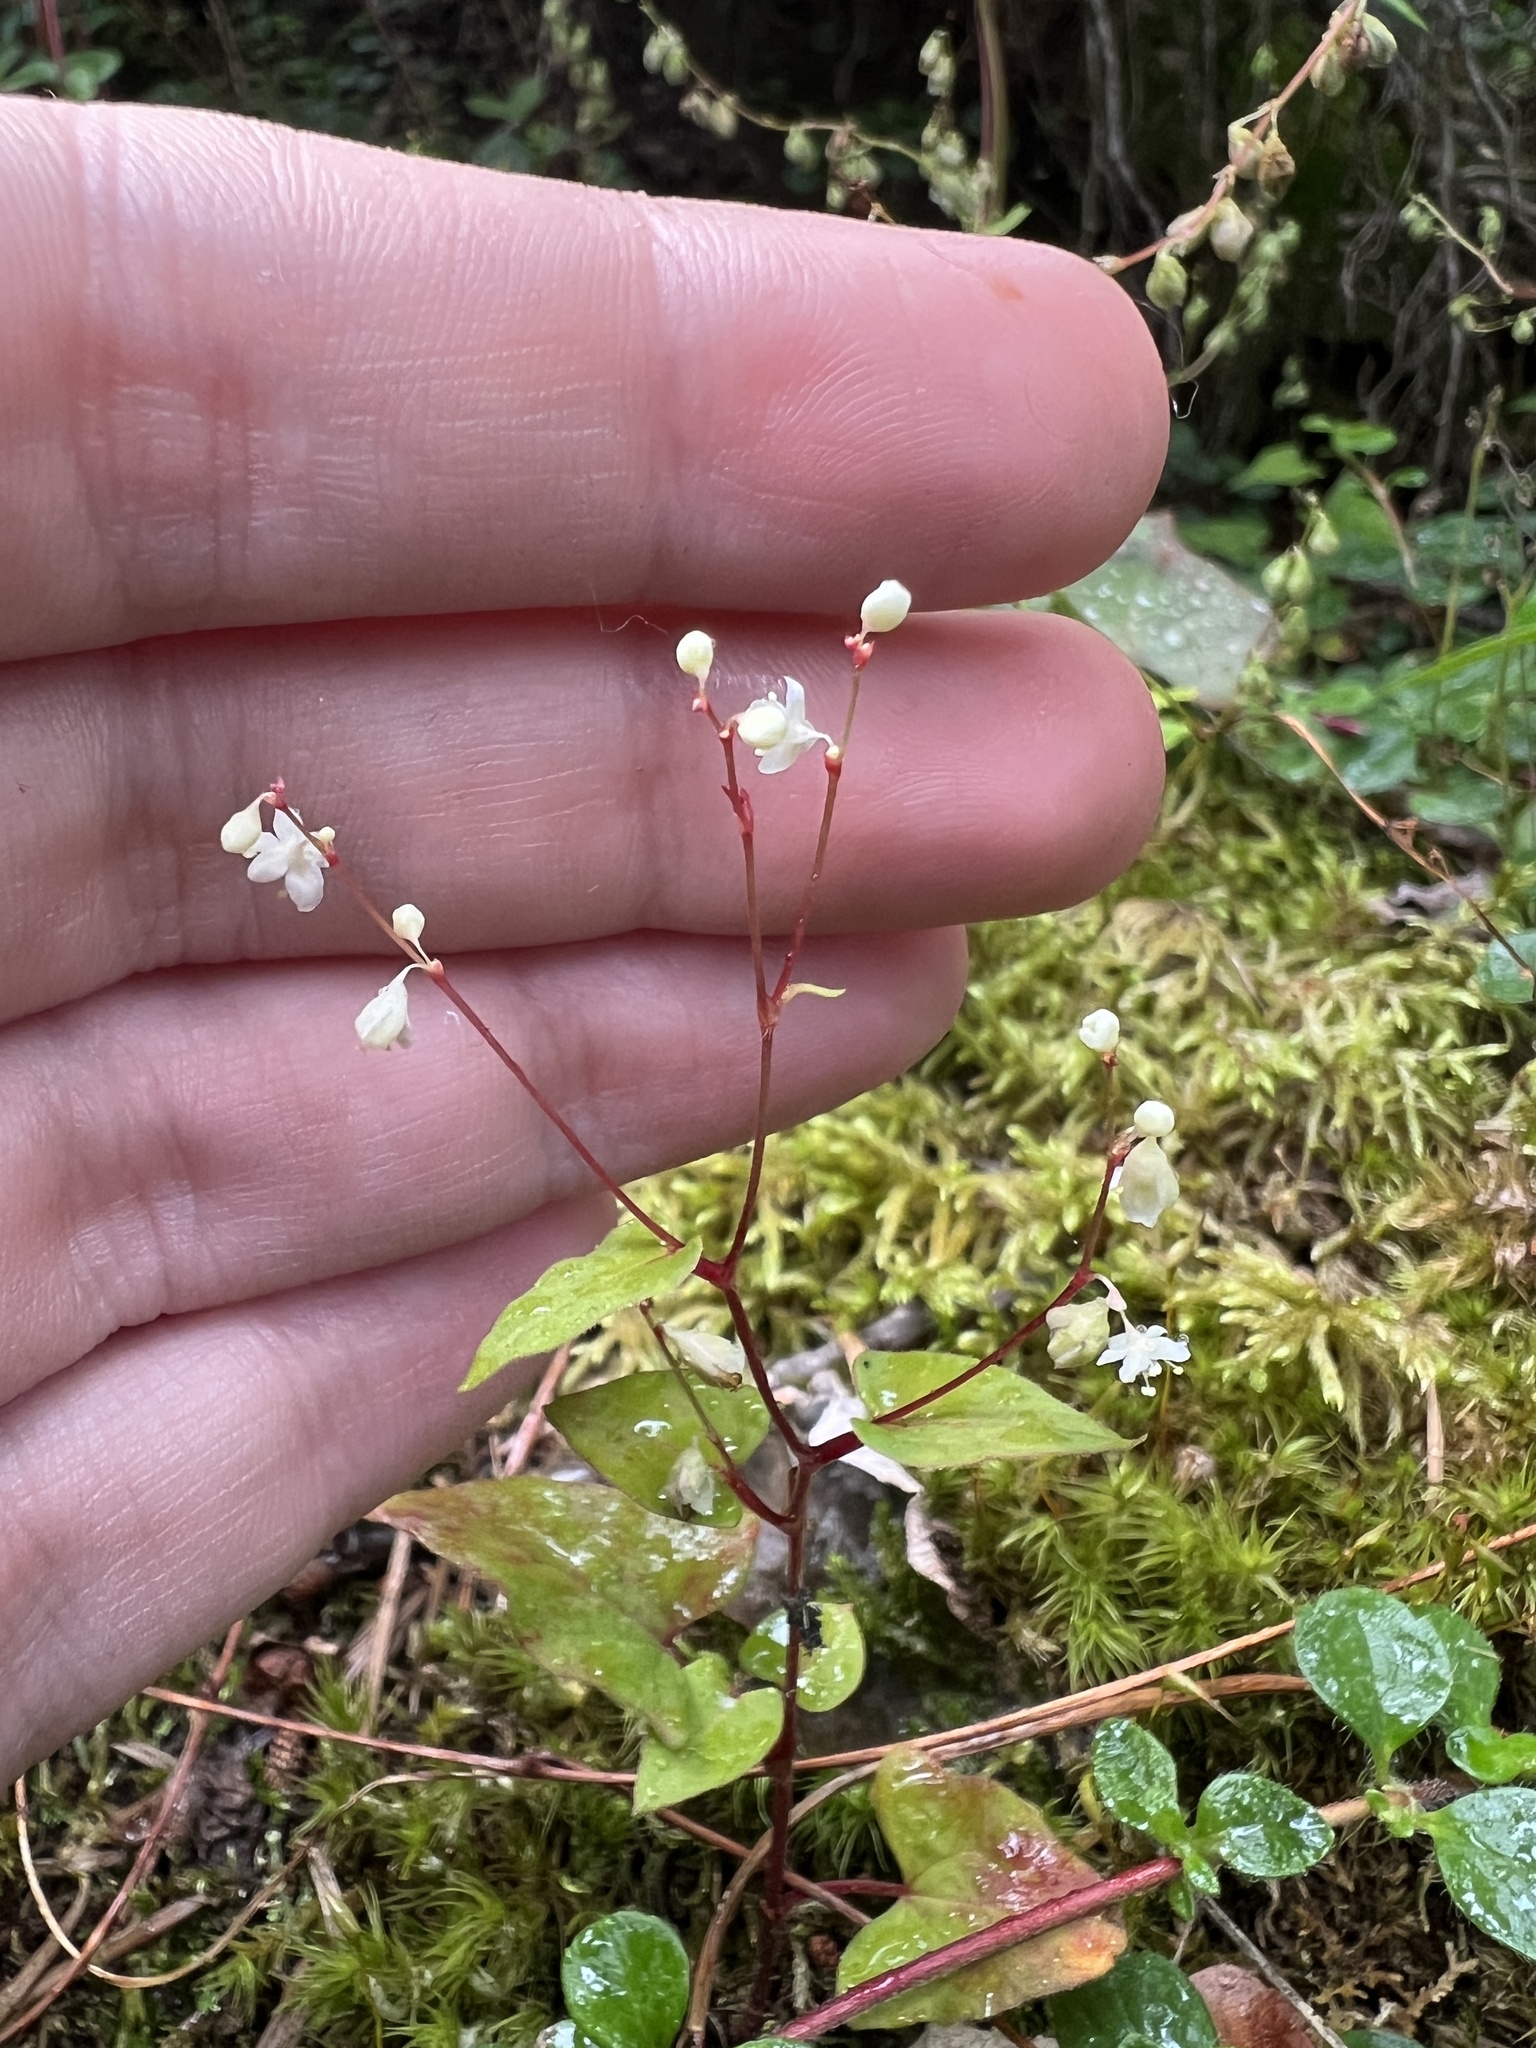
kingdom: Plantae
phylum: Tracheophyta
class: Magnoliopsida
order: Caryophyllales
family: Polygonaceae
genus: Parogonum
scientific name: Parogonum ciliinode
